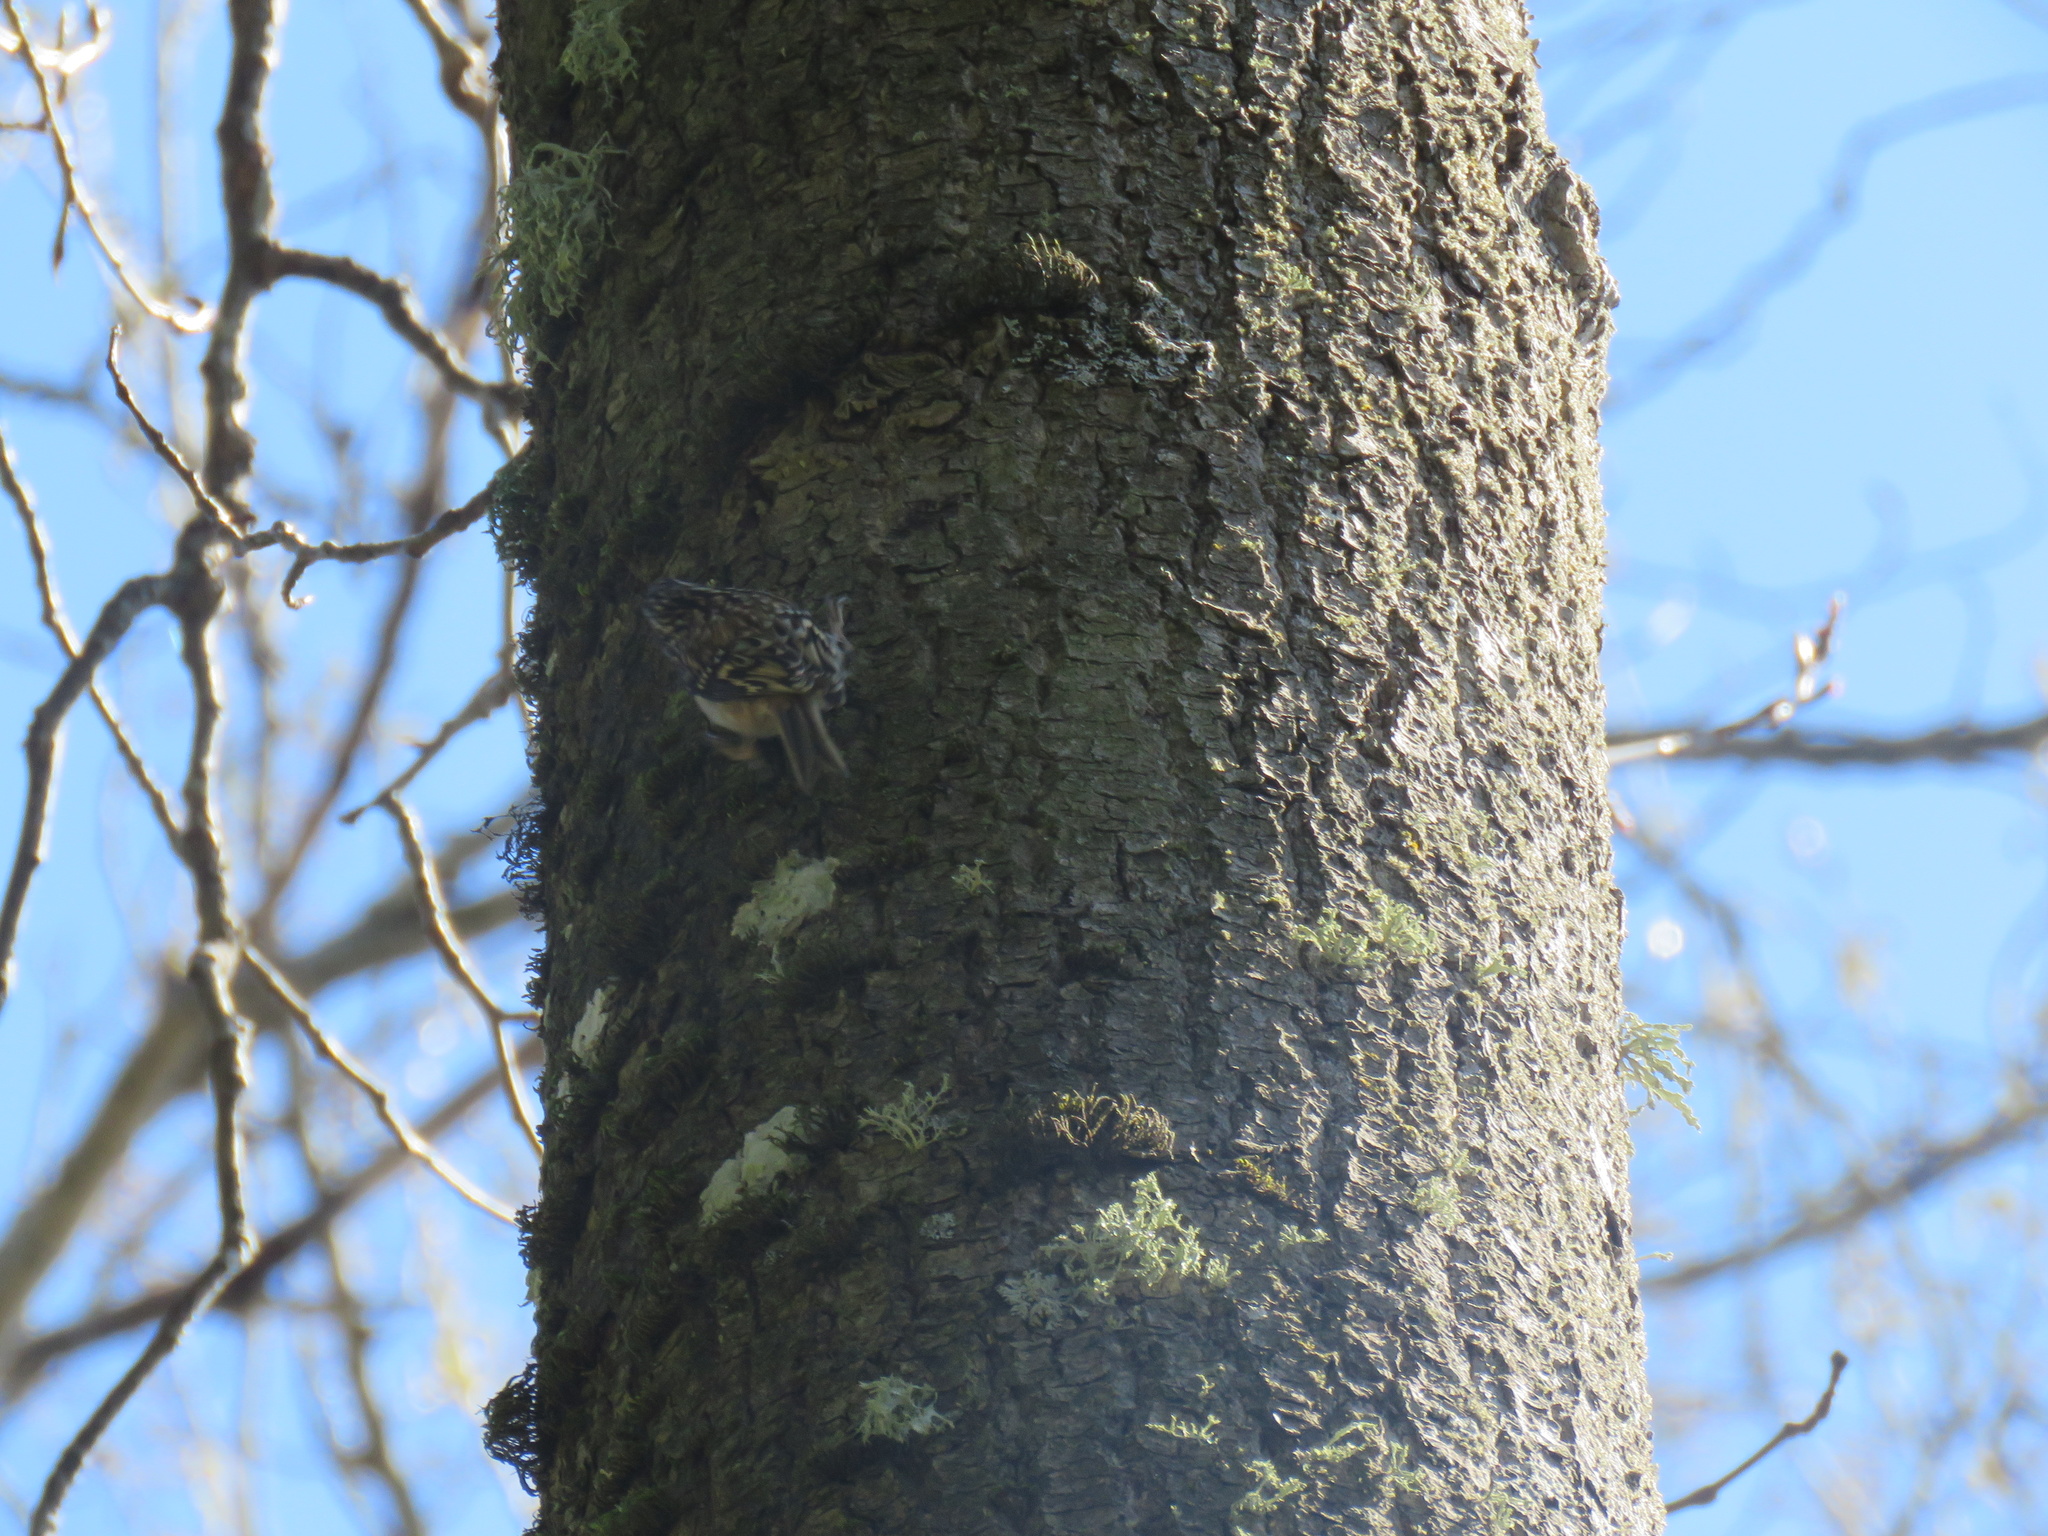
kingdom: Animalia
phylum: Chordata
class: Aves
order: Passeriformes
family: Certhiidae
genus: Certhia
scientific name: Certhia americana
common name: Brown creeper
